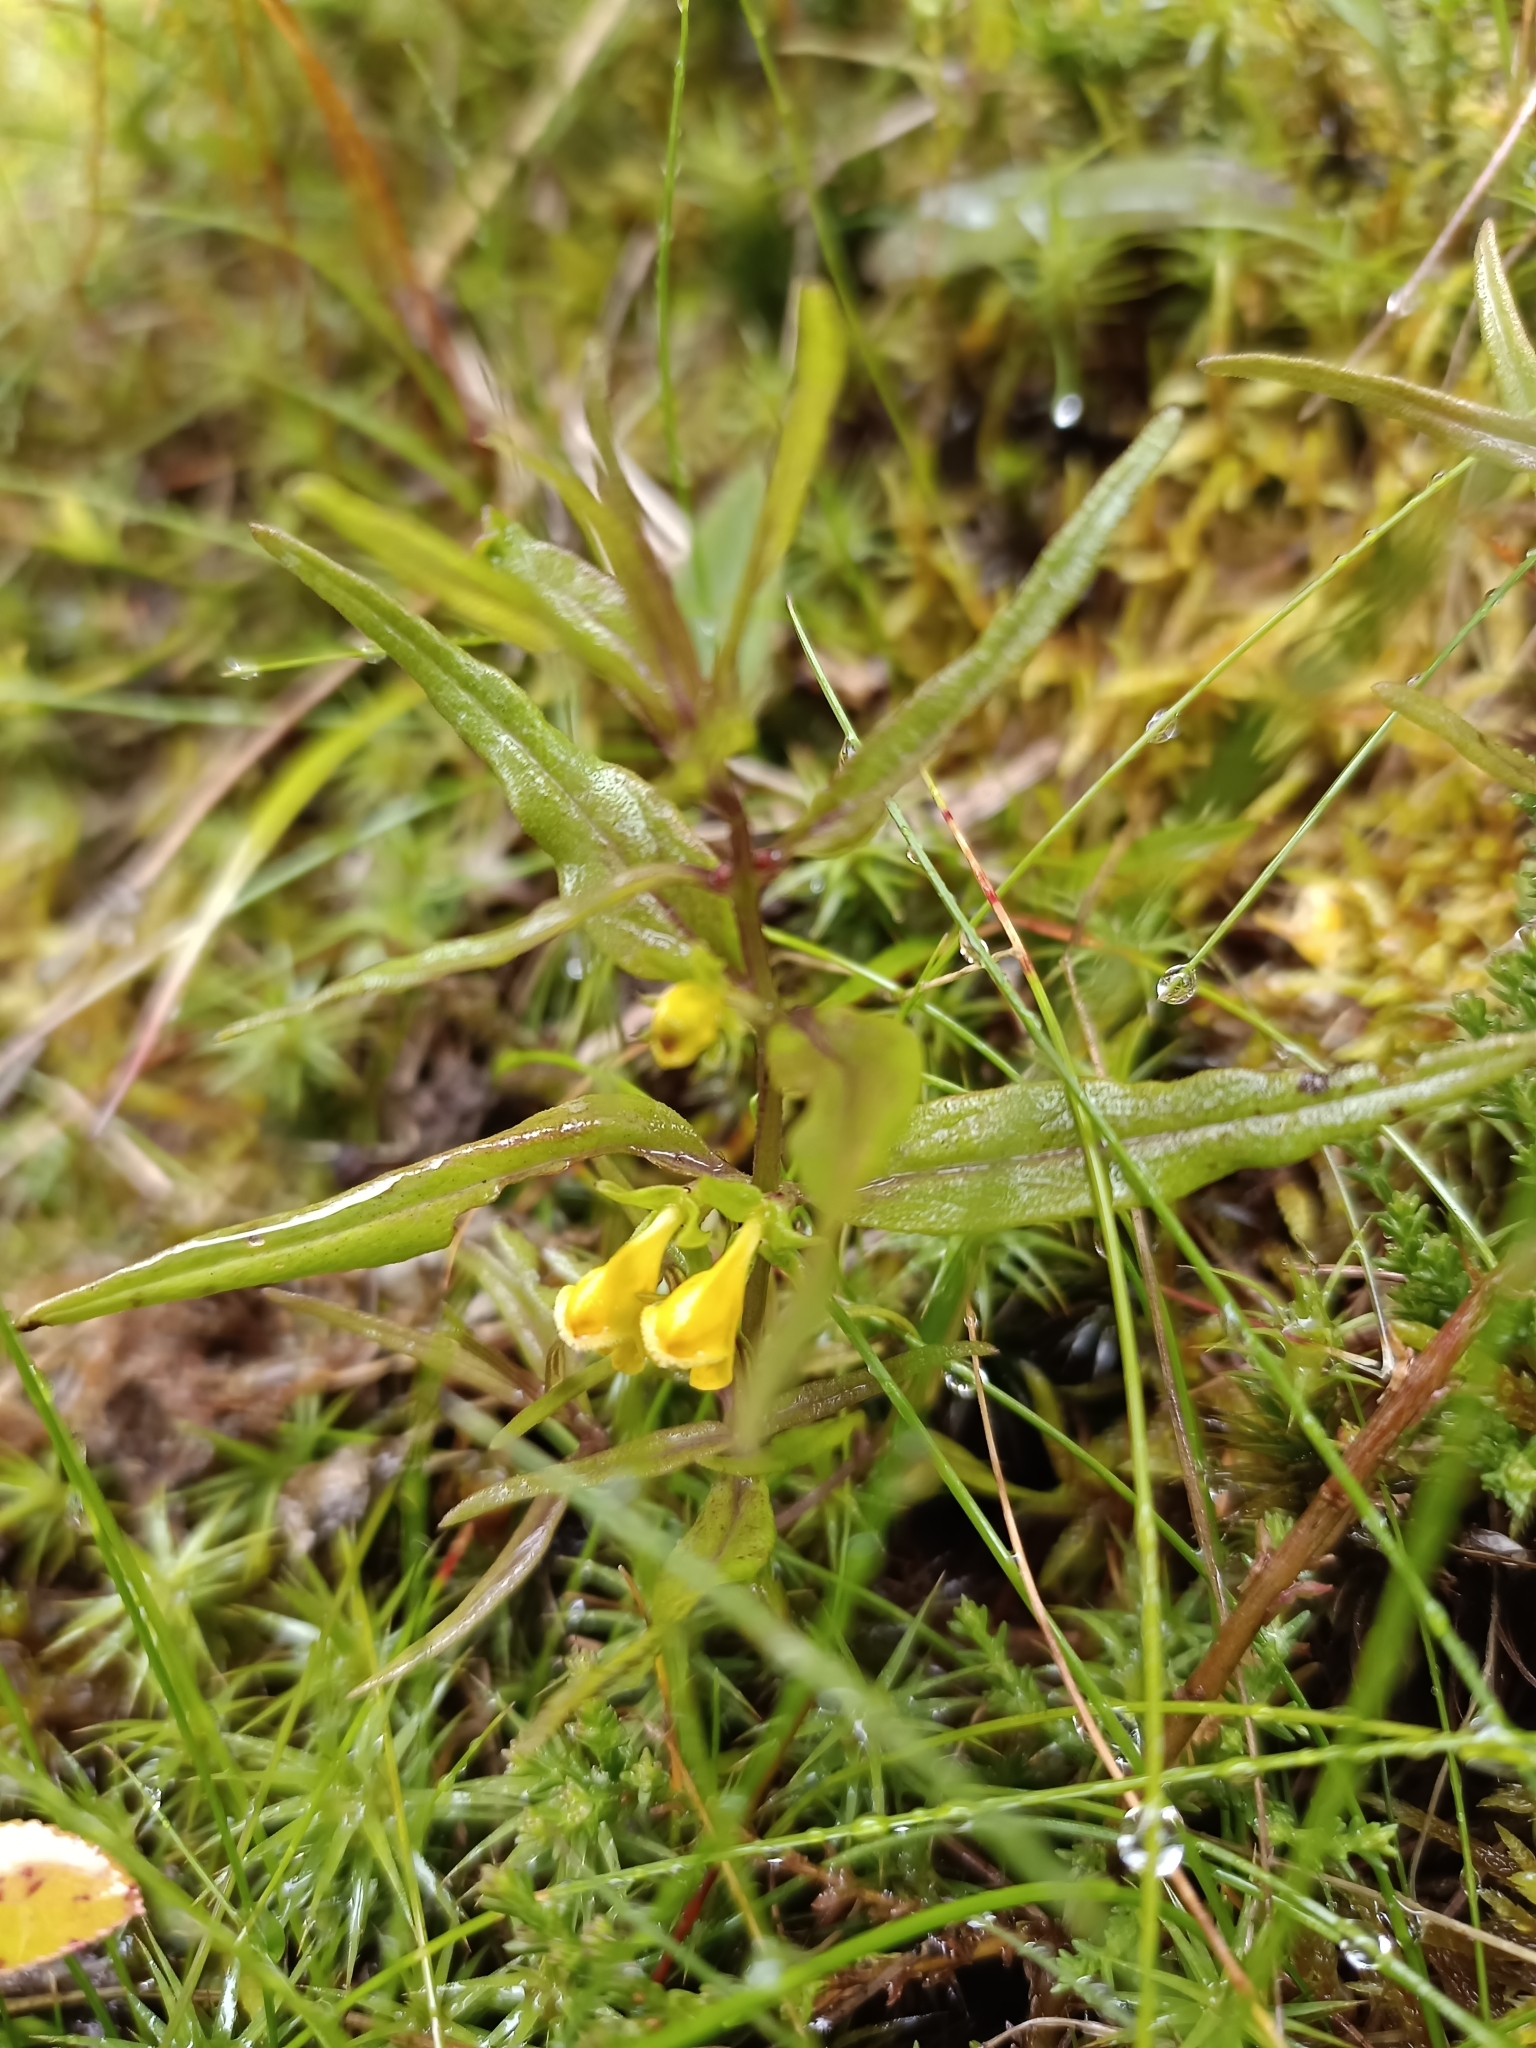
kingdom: Plantae
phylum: Tracheophyta
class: Magnoliopsida
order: Lamiales
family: Orobanchaceae
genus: Melampyrum
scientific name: Melampyrum sylvaticum
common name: Small cow-wheat
